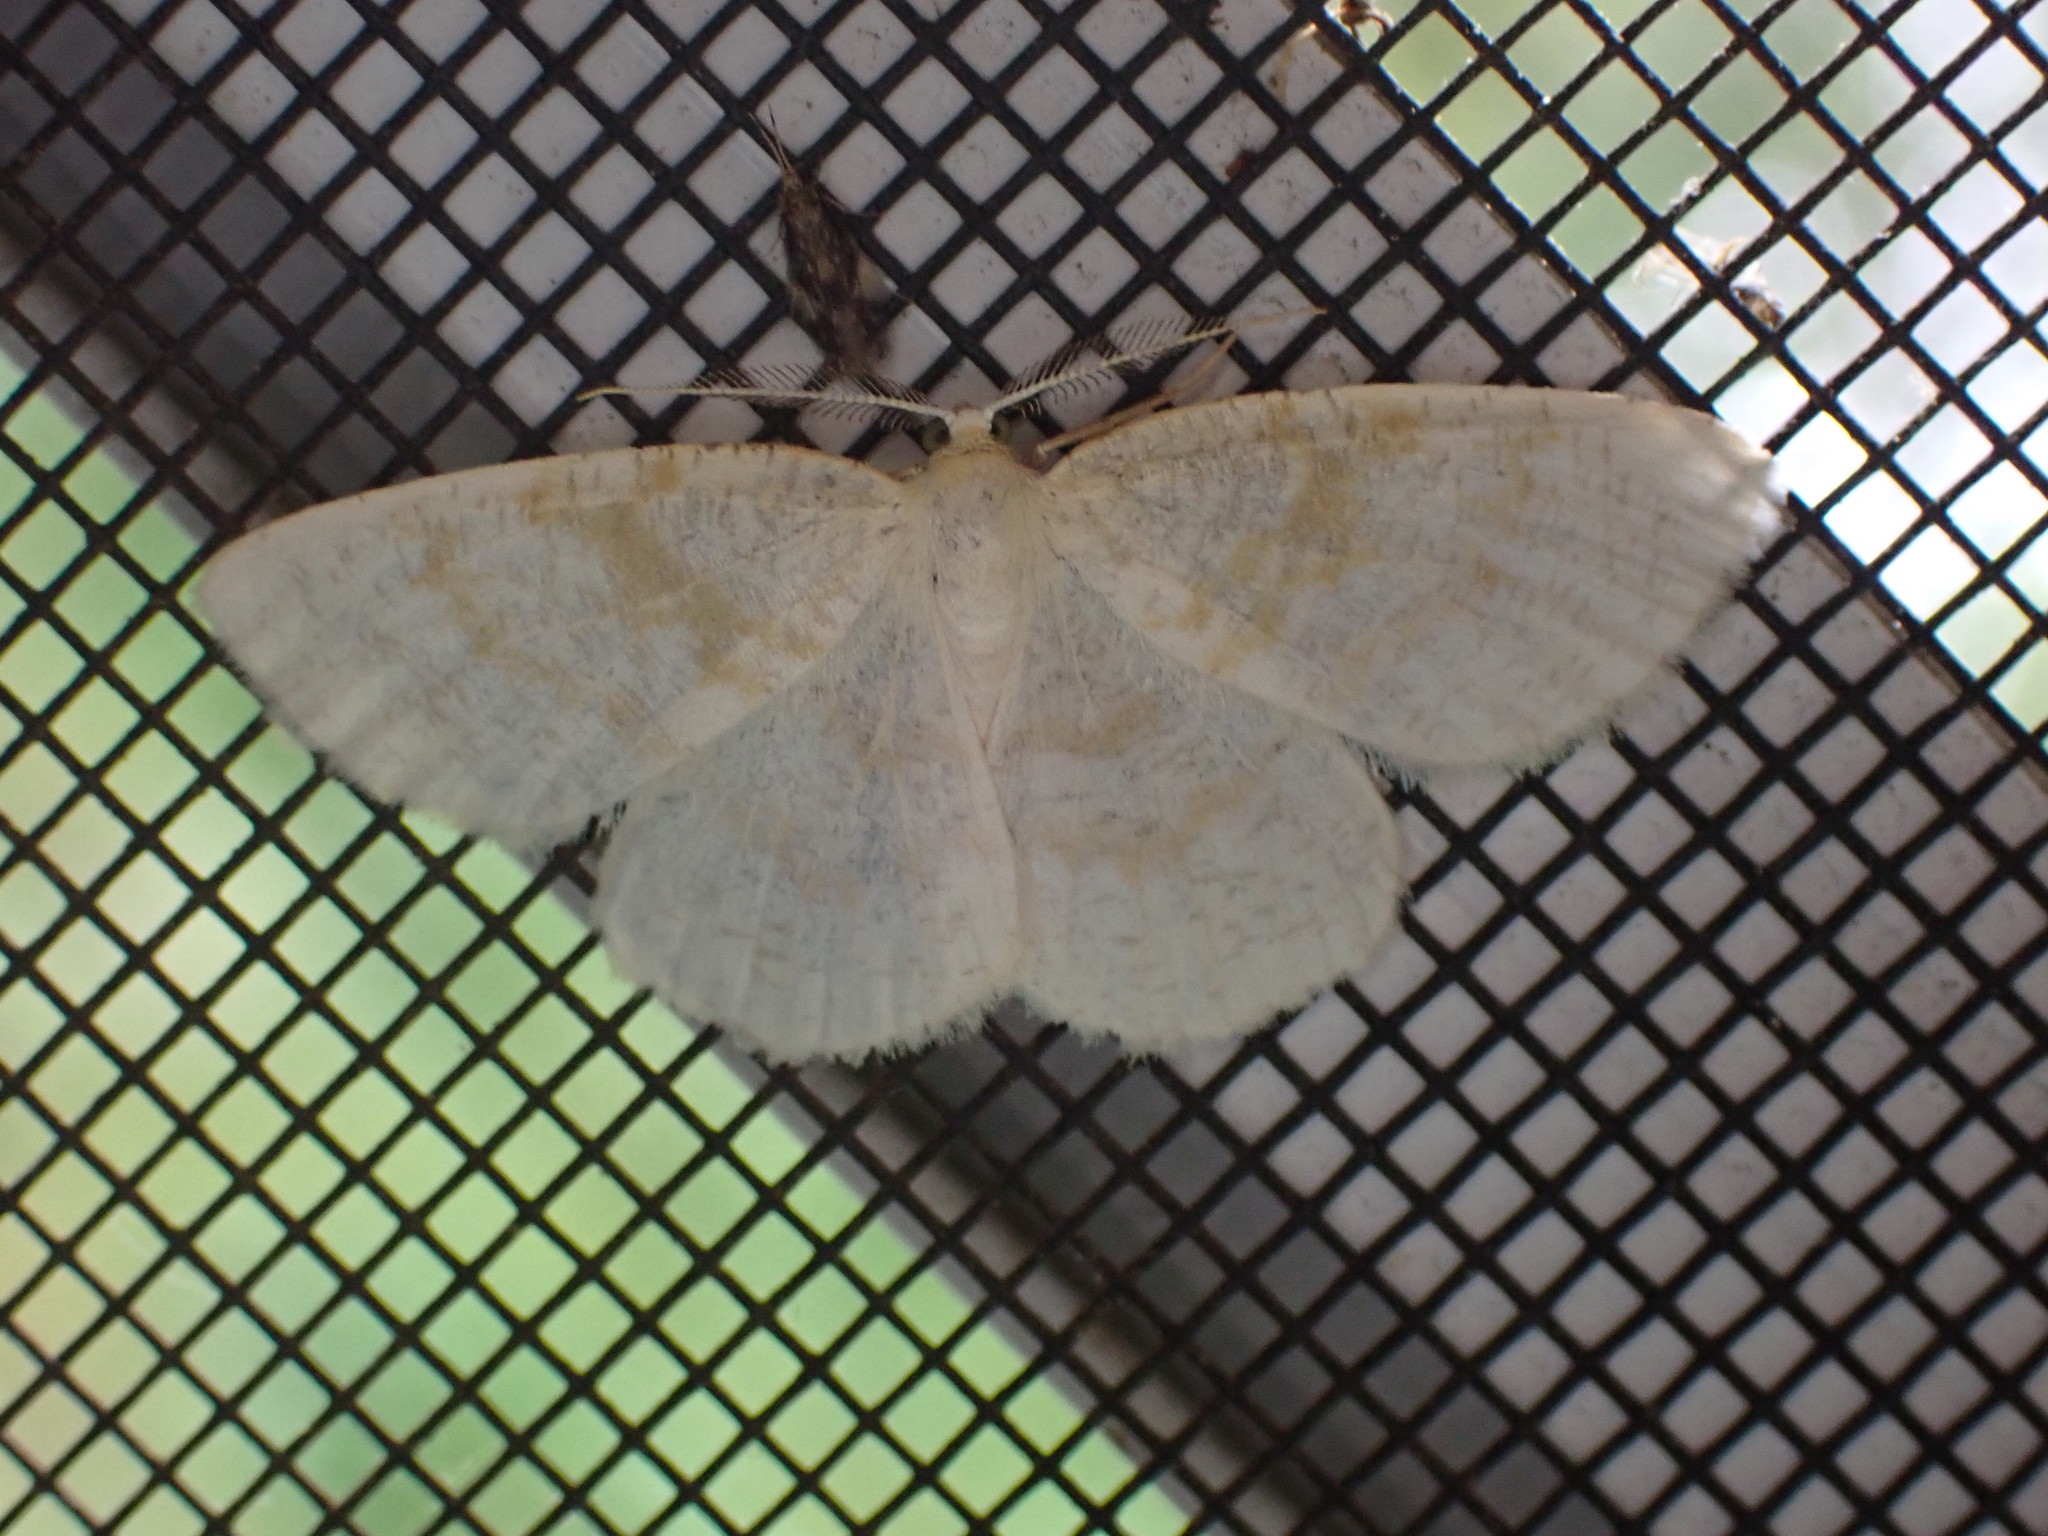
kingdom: Animalia
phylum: Arthropoda
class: Insecta
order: Lepidoptera
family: Geometridae
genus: Cabera
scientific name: Cabera erythemaria
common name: Yellow-dusted cream moth
